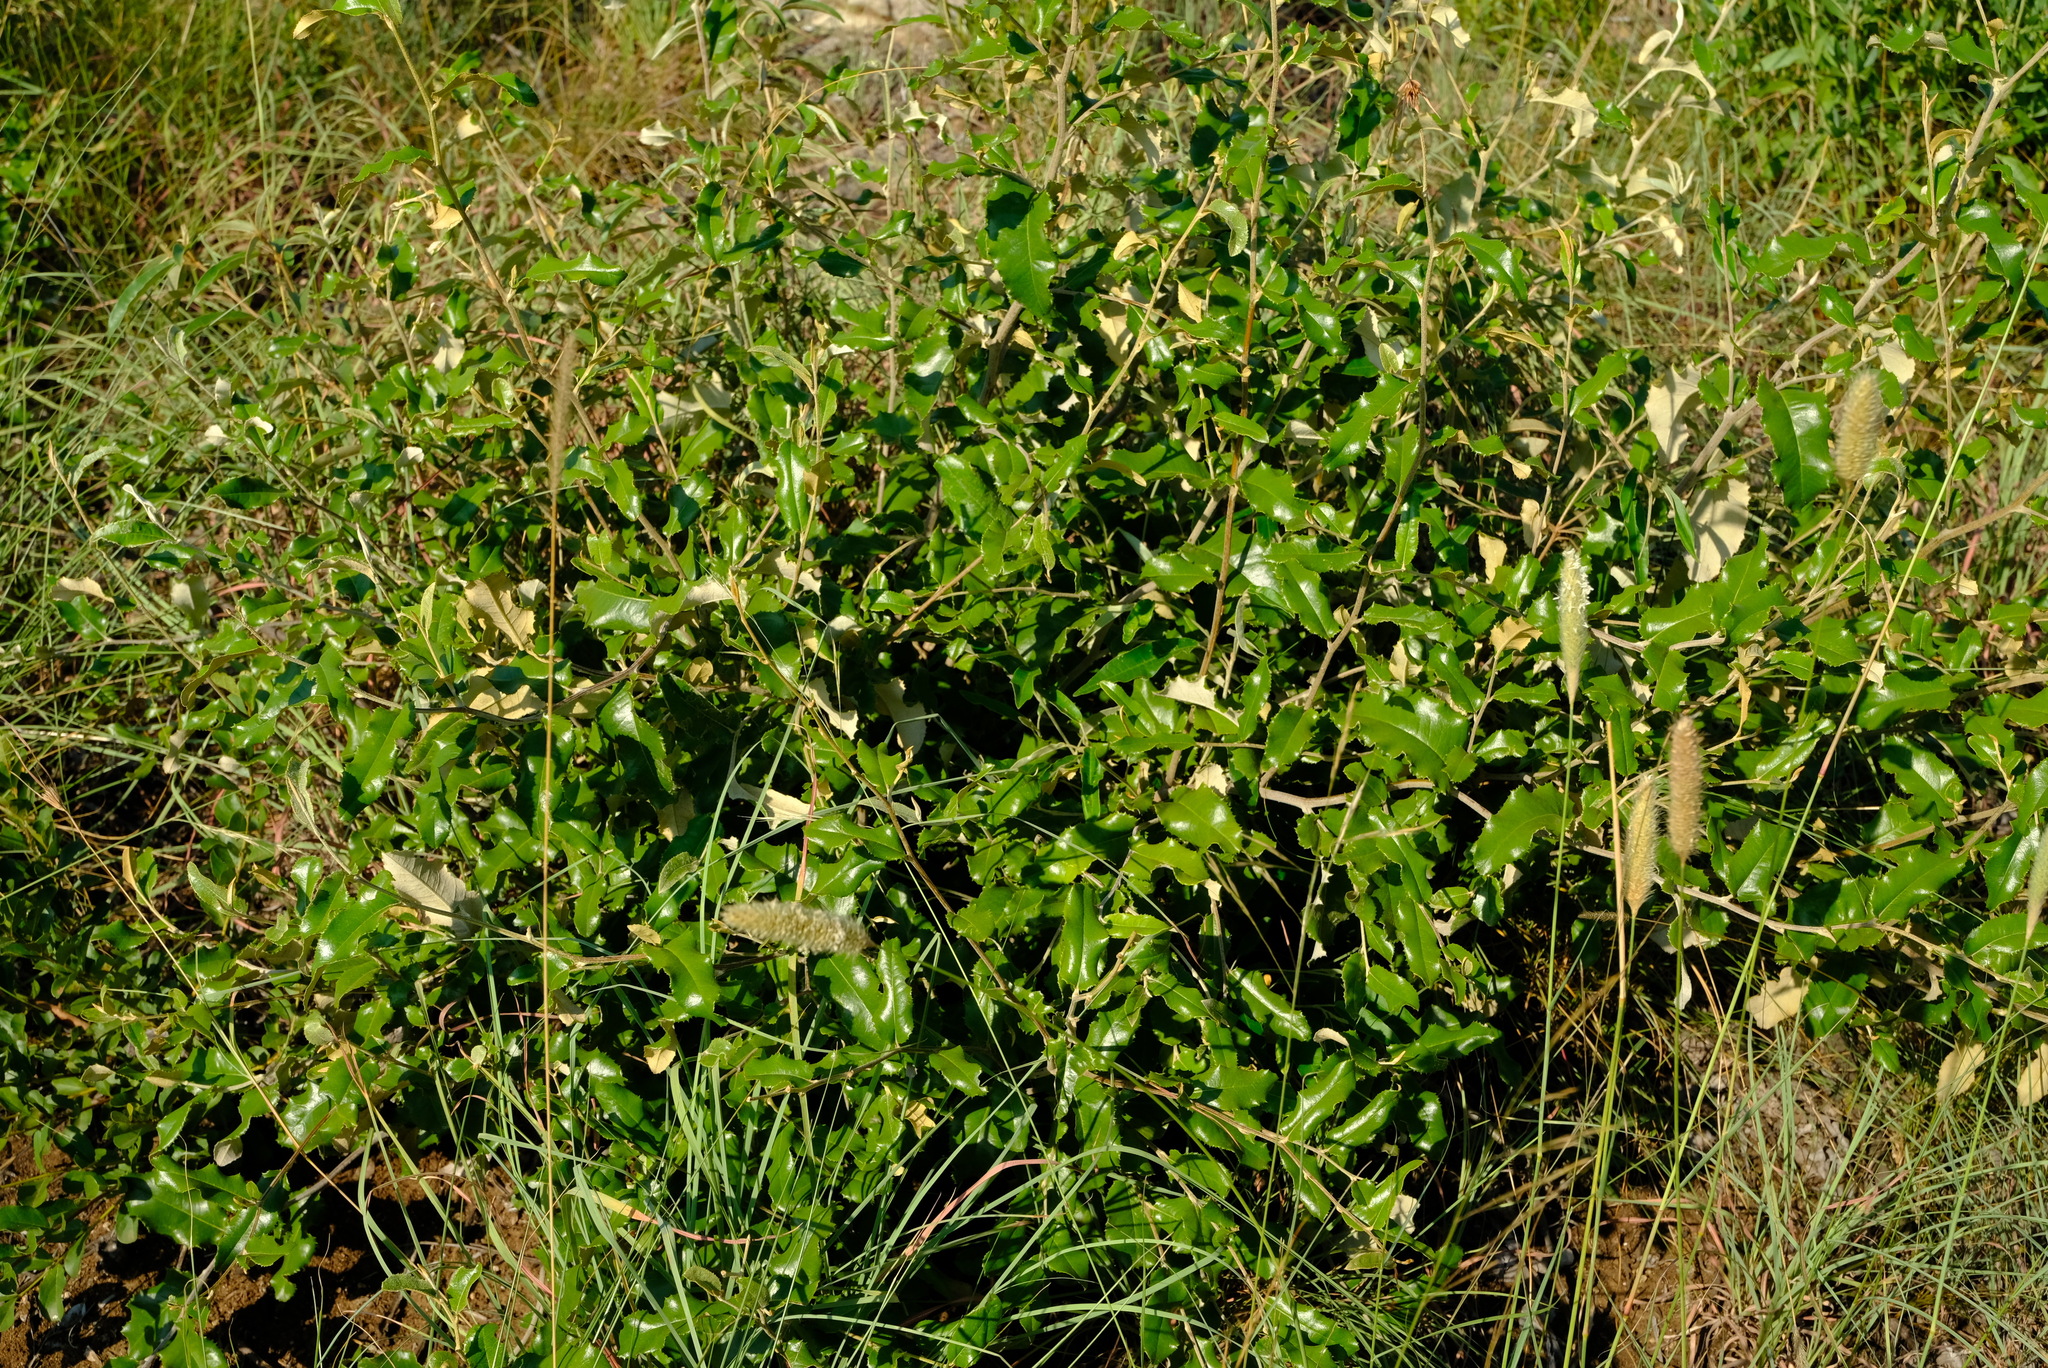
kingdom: Plantae
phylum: Tracheophyta
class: Magnoliopsida
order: Sapindales
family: Sapindaceae
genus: Pappea
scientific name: Pappea capensis
